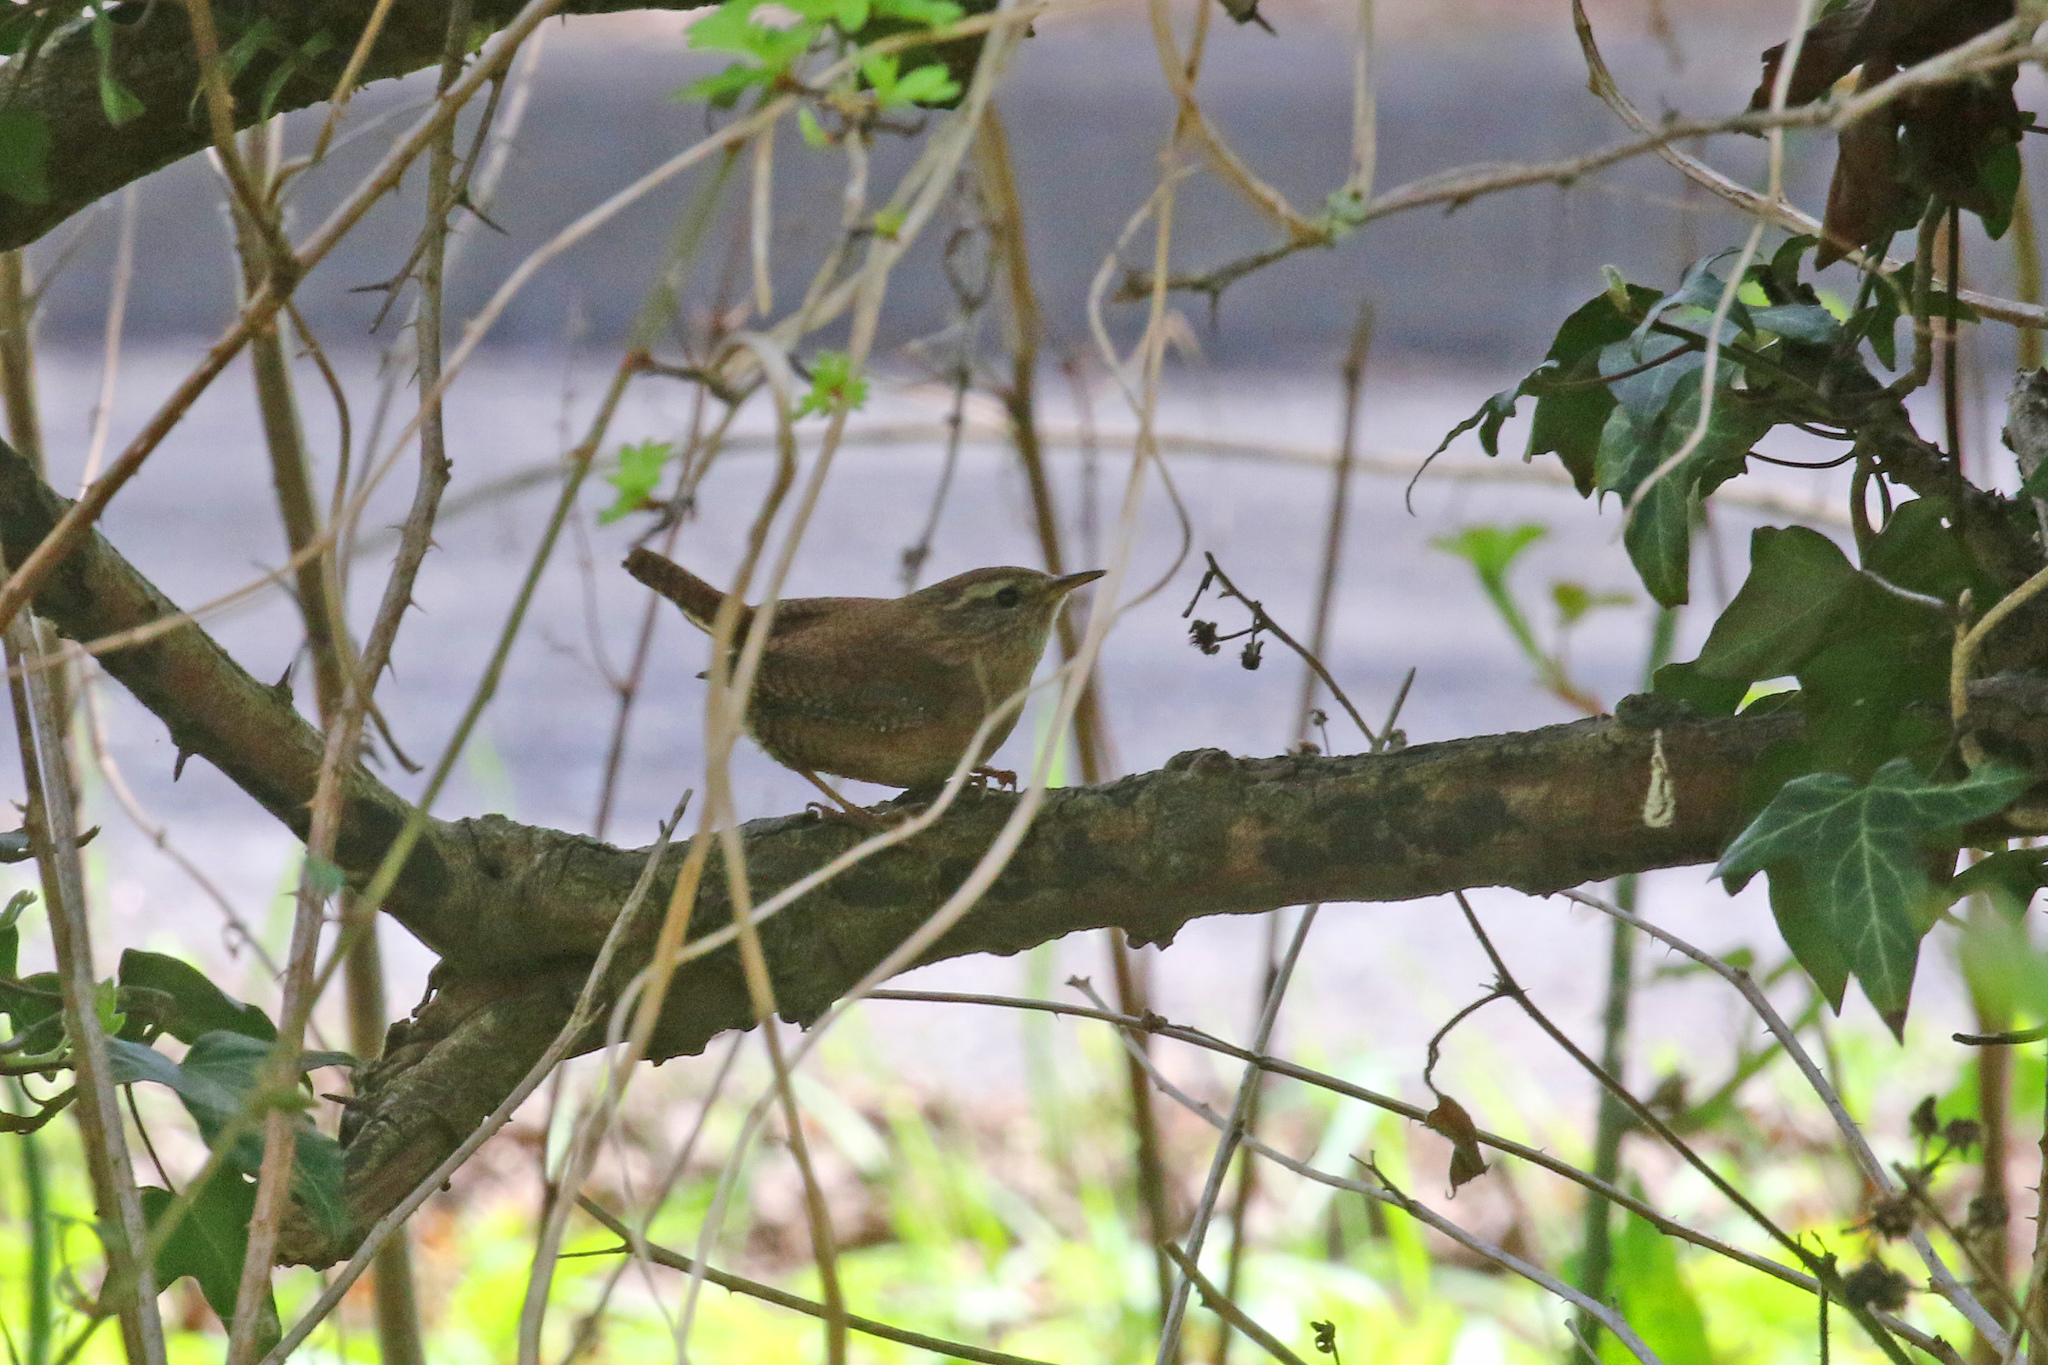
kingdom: Animalia
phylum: Chordata
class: Aves
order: Passeriformes
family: Troglodytidae
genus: Troglodytes
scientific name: Troglodytes troglodytes
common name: Eurasian wren
